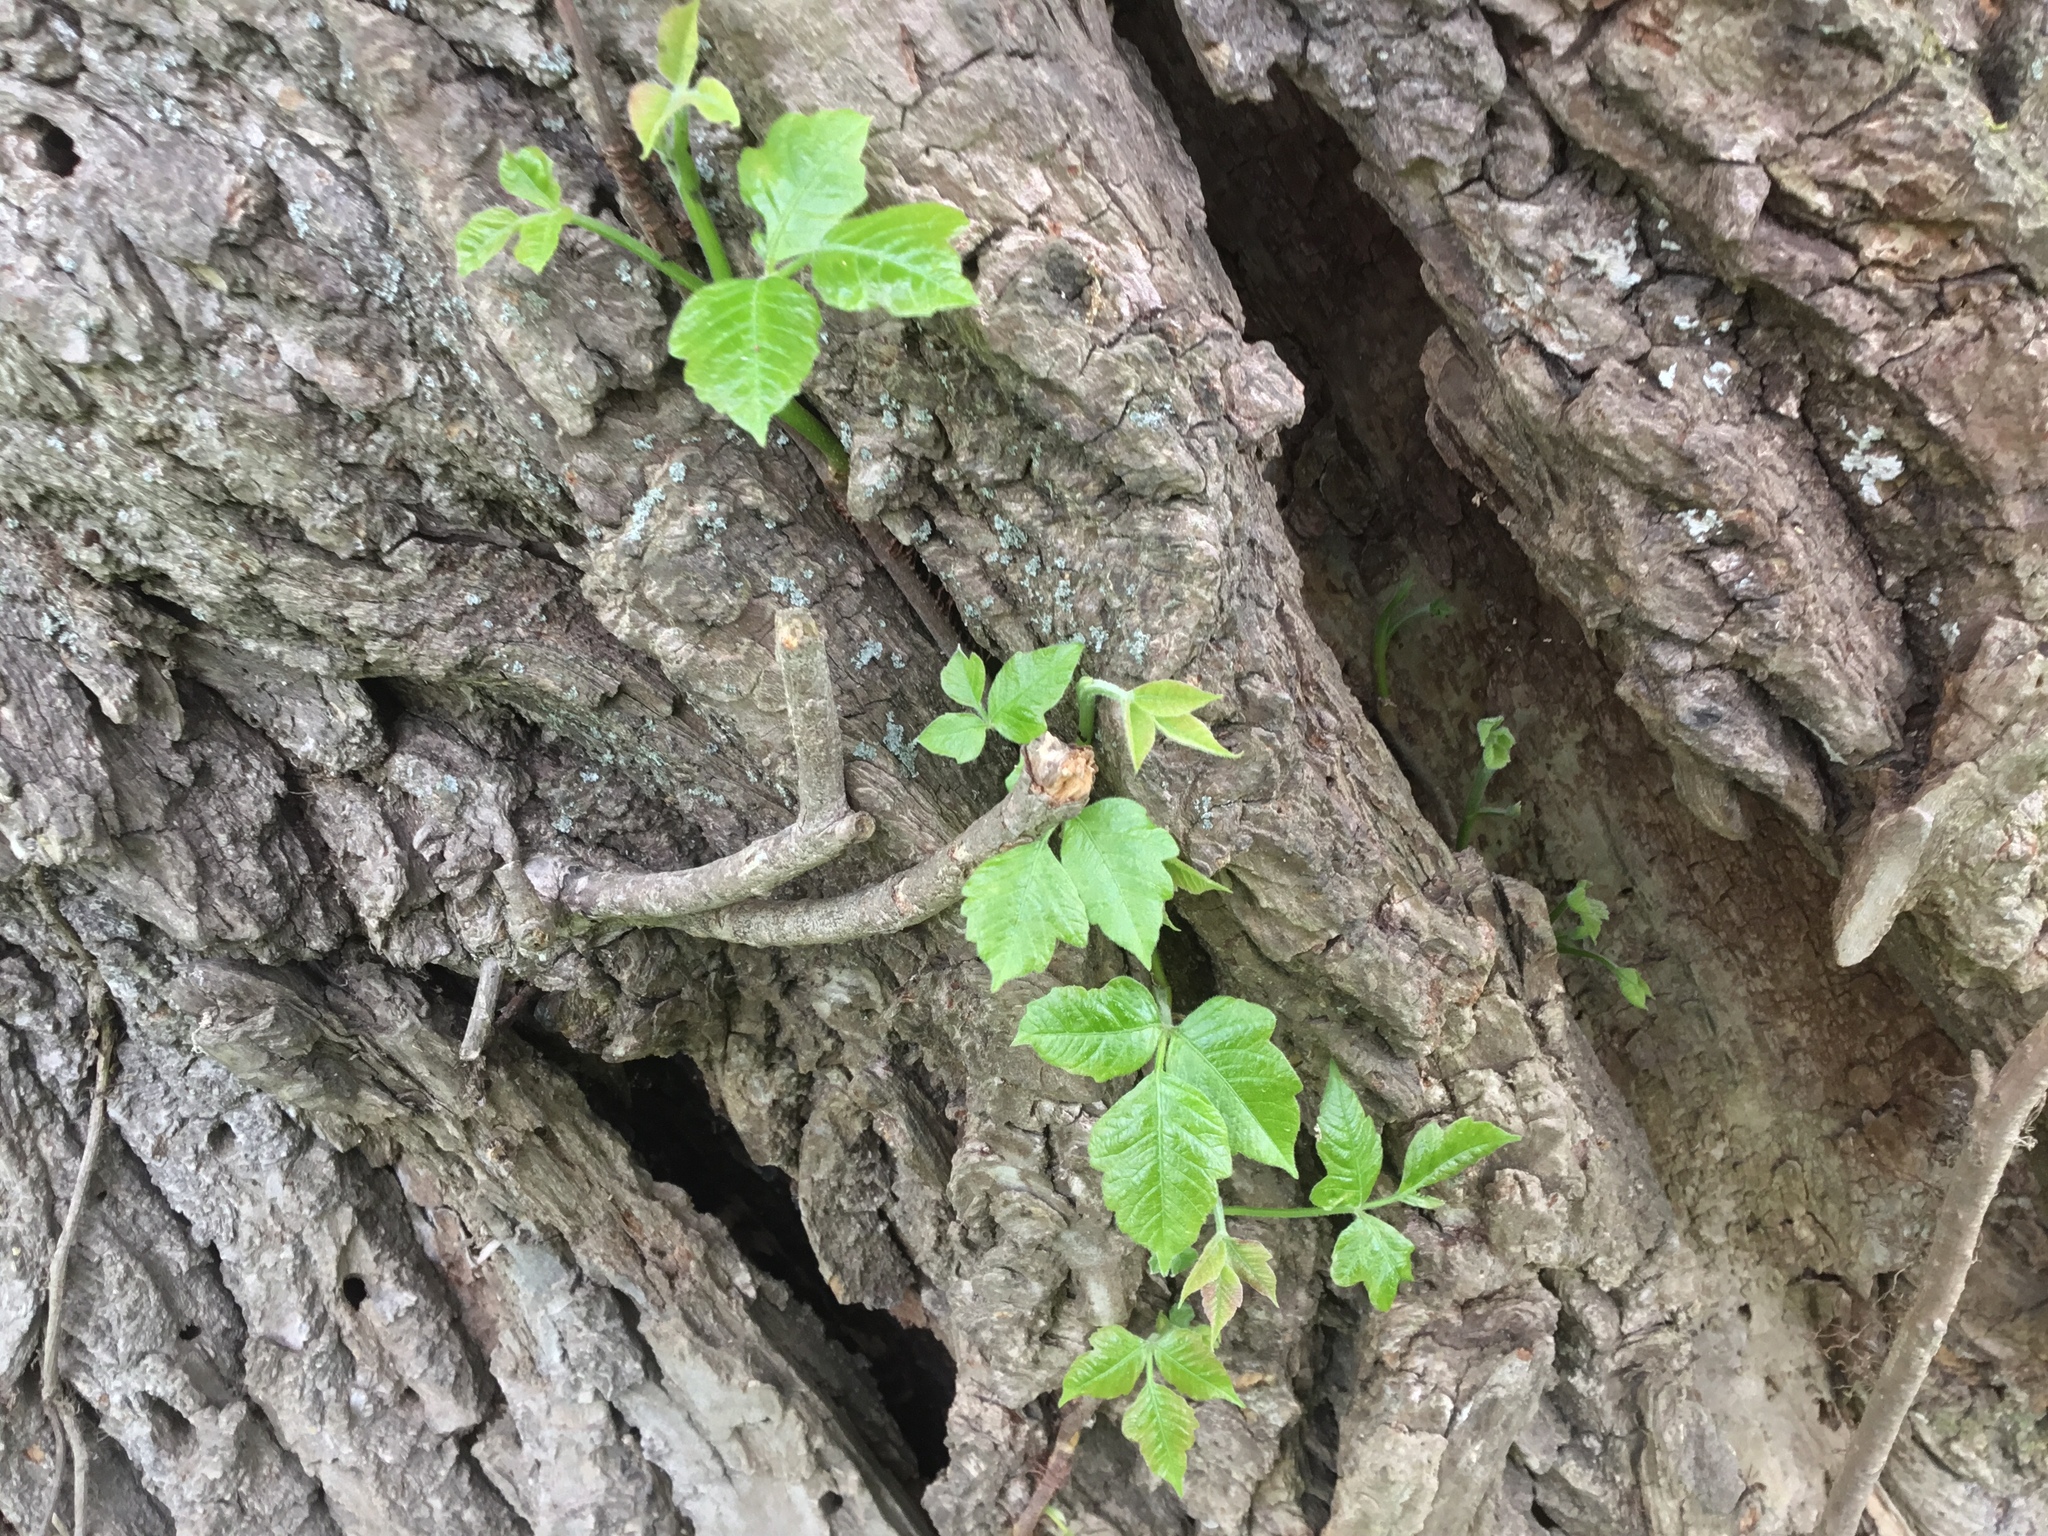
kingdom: Plantae
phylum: Tracheophyta
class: Magnoliopsida
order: Sapindales
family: Anacardiaceae
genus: Toxicodendron
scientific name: Toxicodendron radicans
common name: Poison ivy
